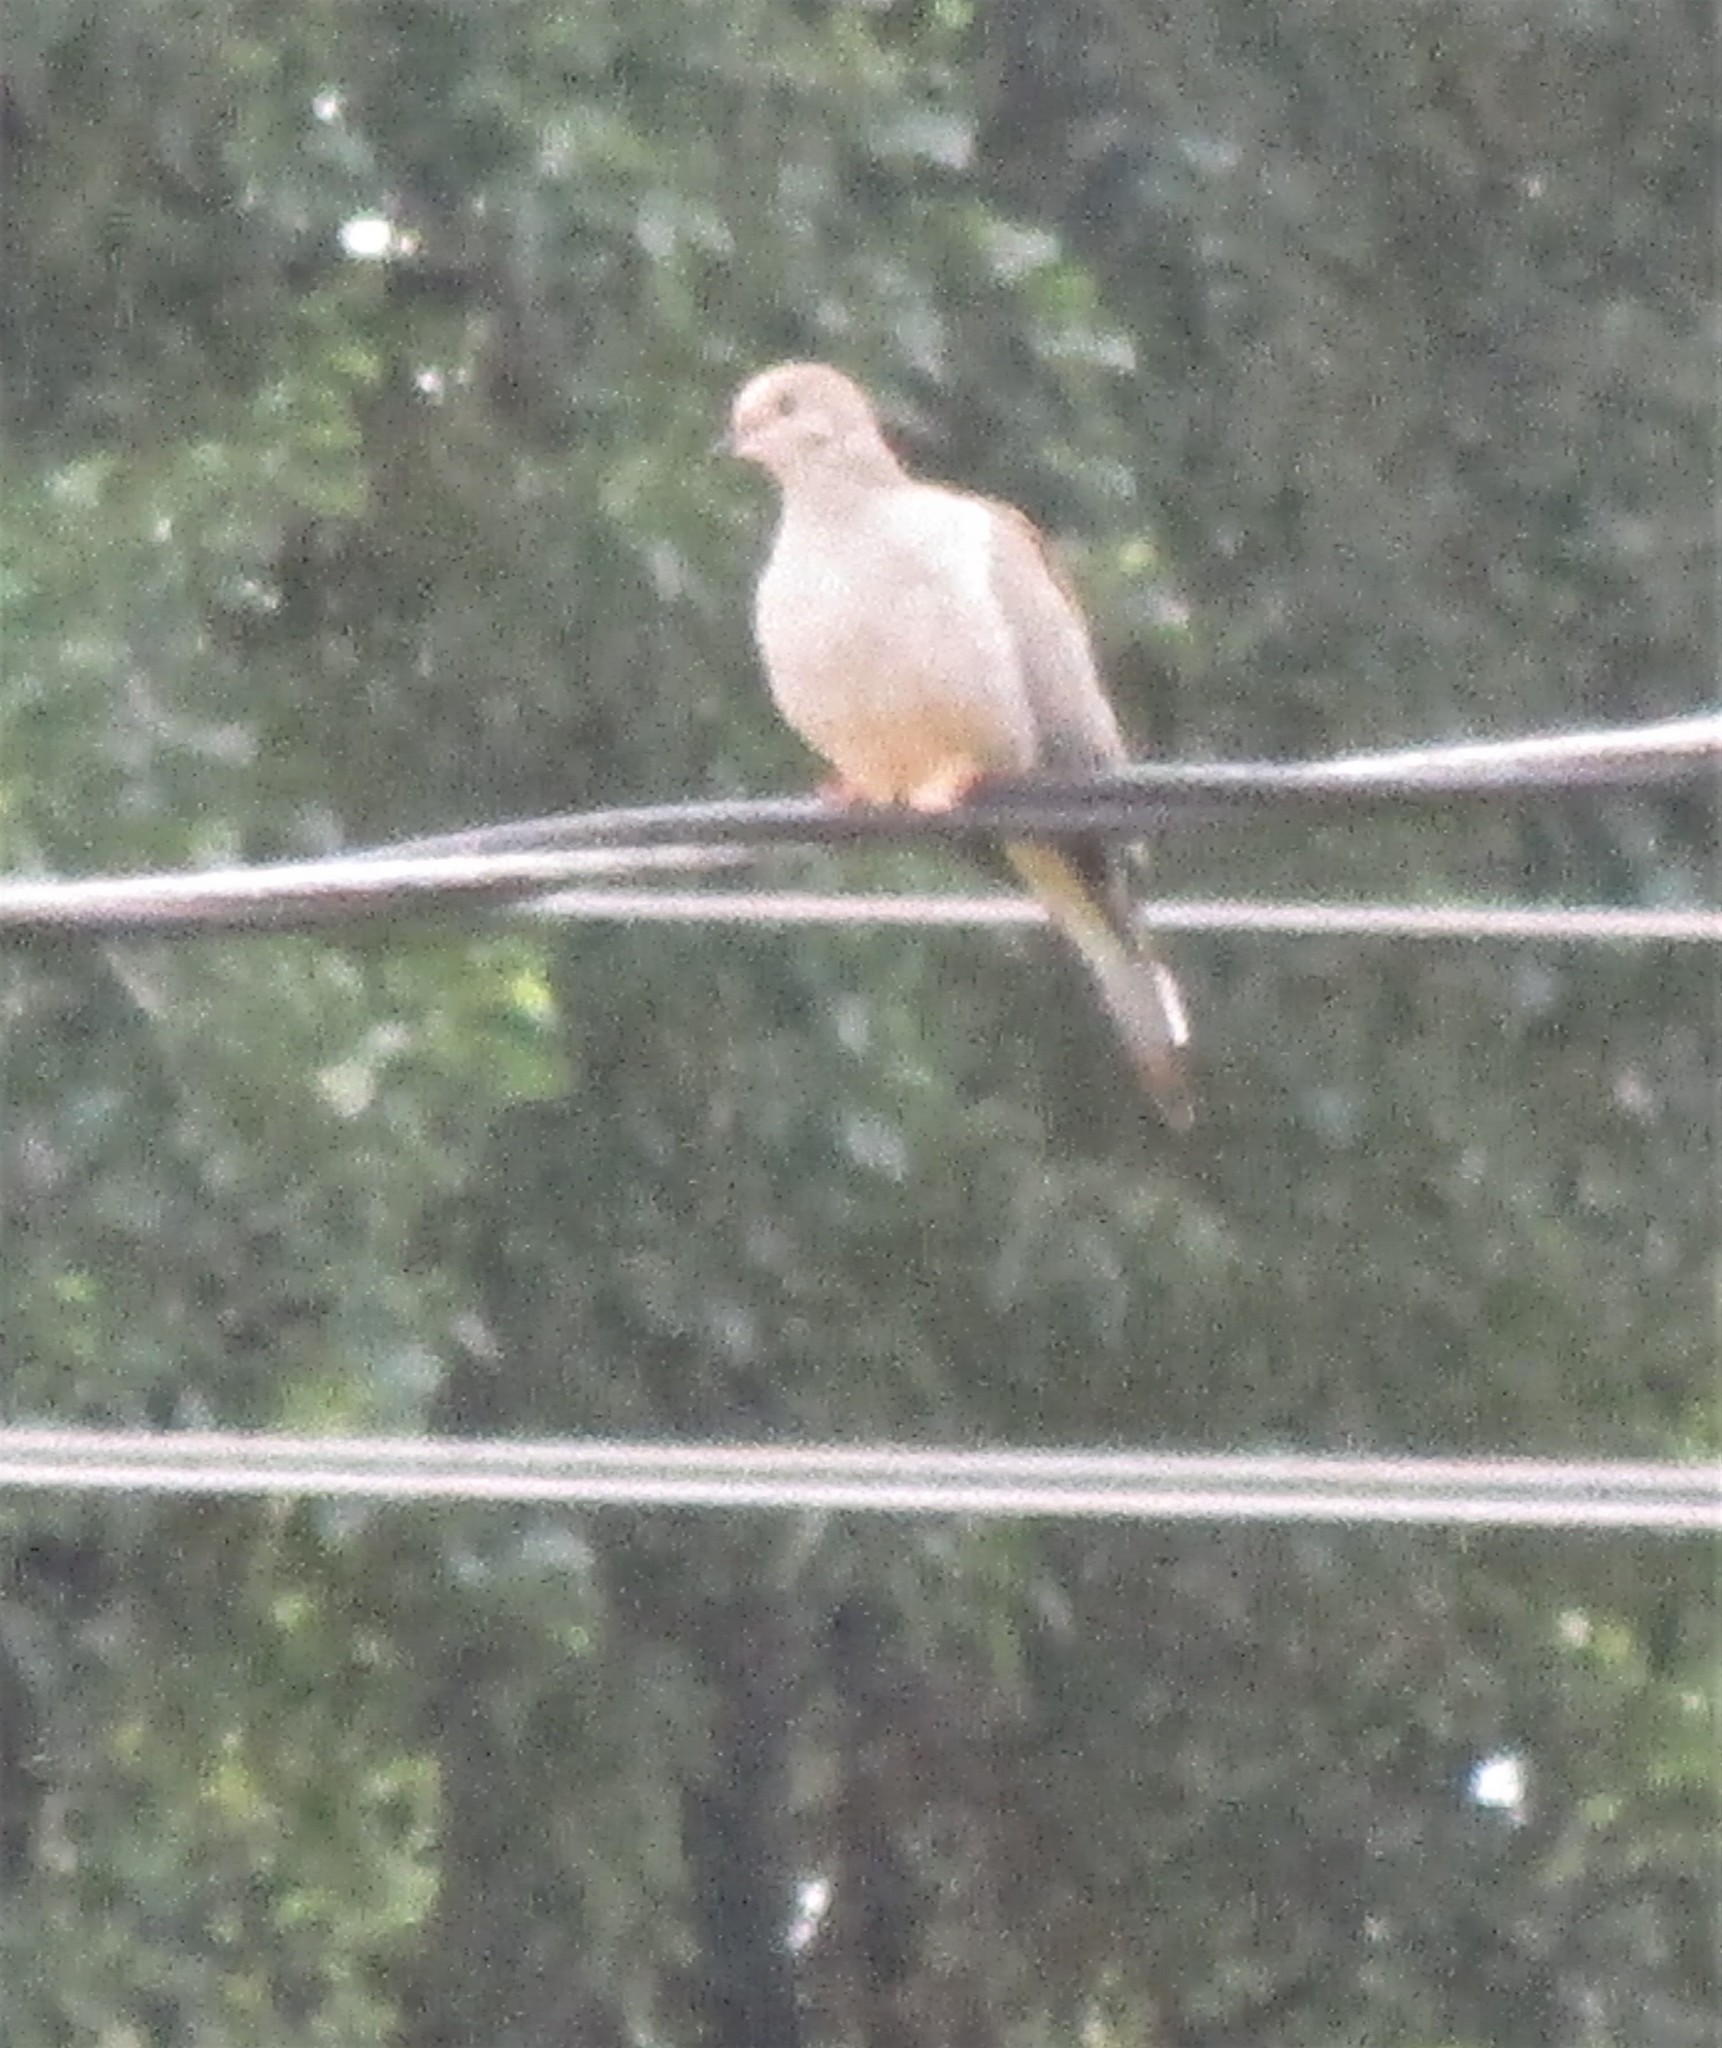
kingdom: Animalia
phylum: Chordata
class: Aves
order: Columbiformes
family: Columbidae
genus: Zenaida
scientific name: Zenaida macroura
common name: Mourning dove
